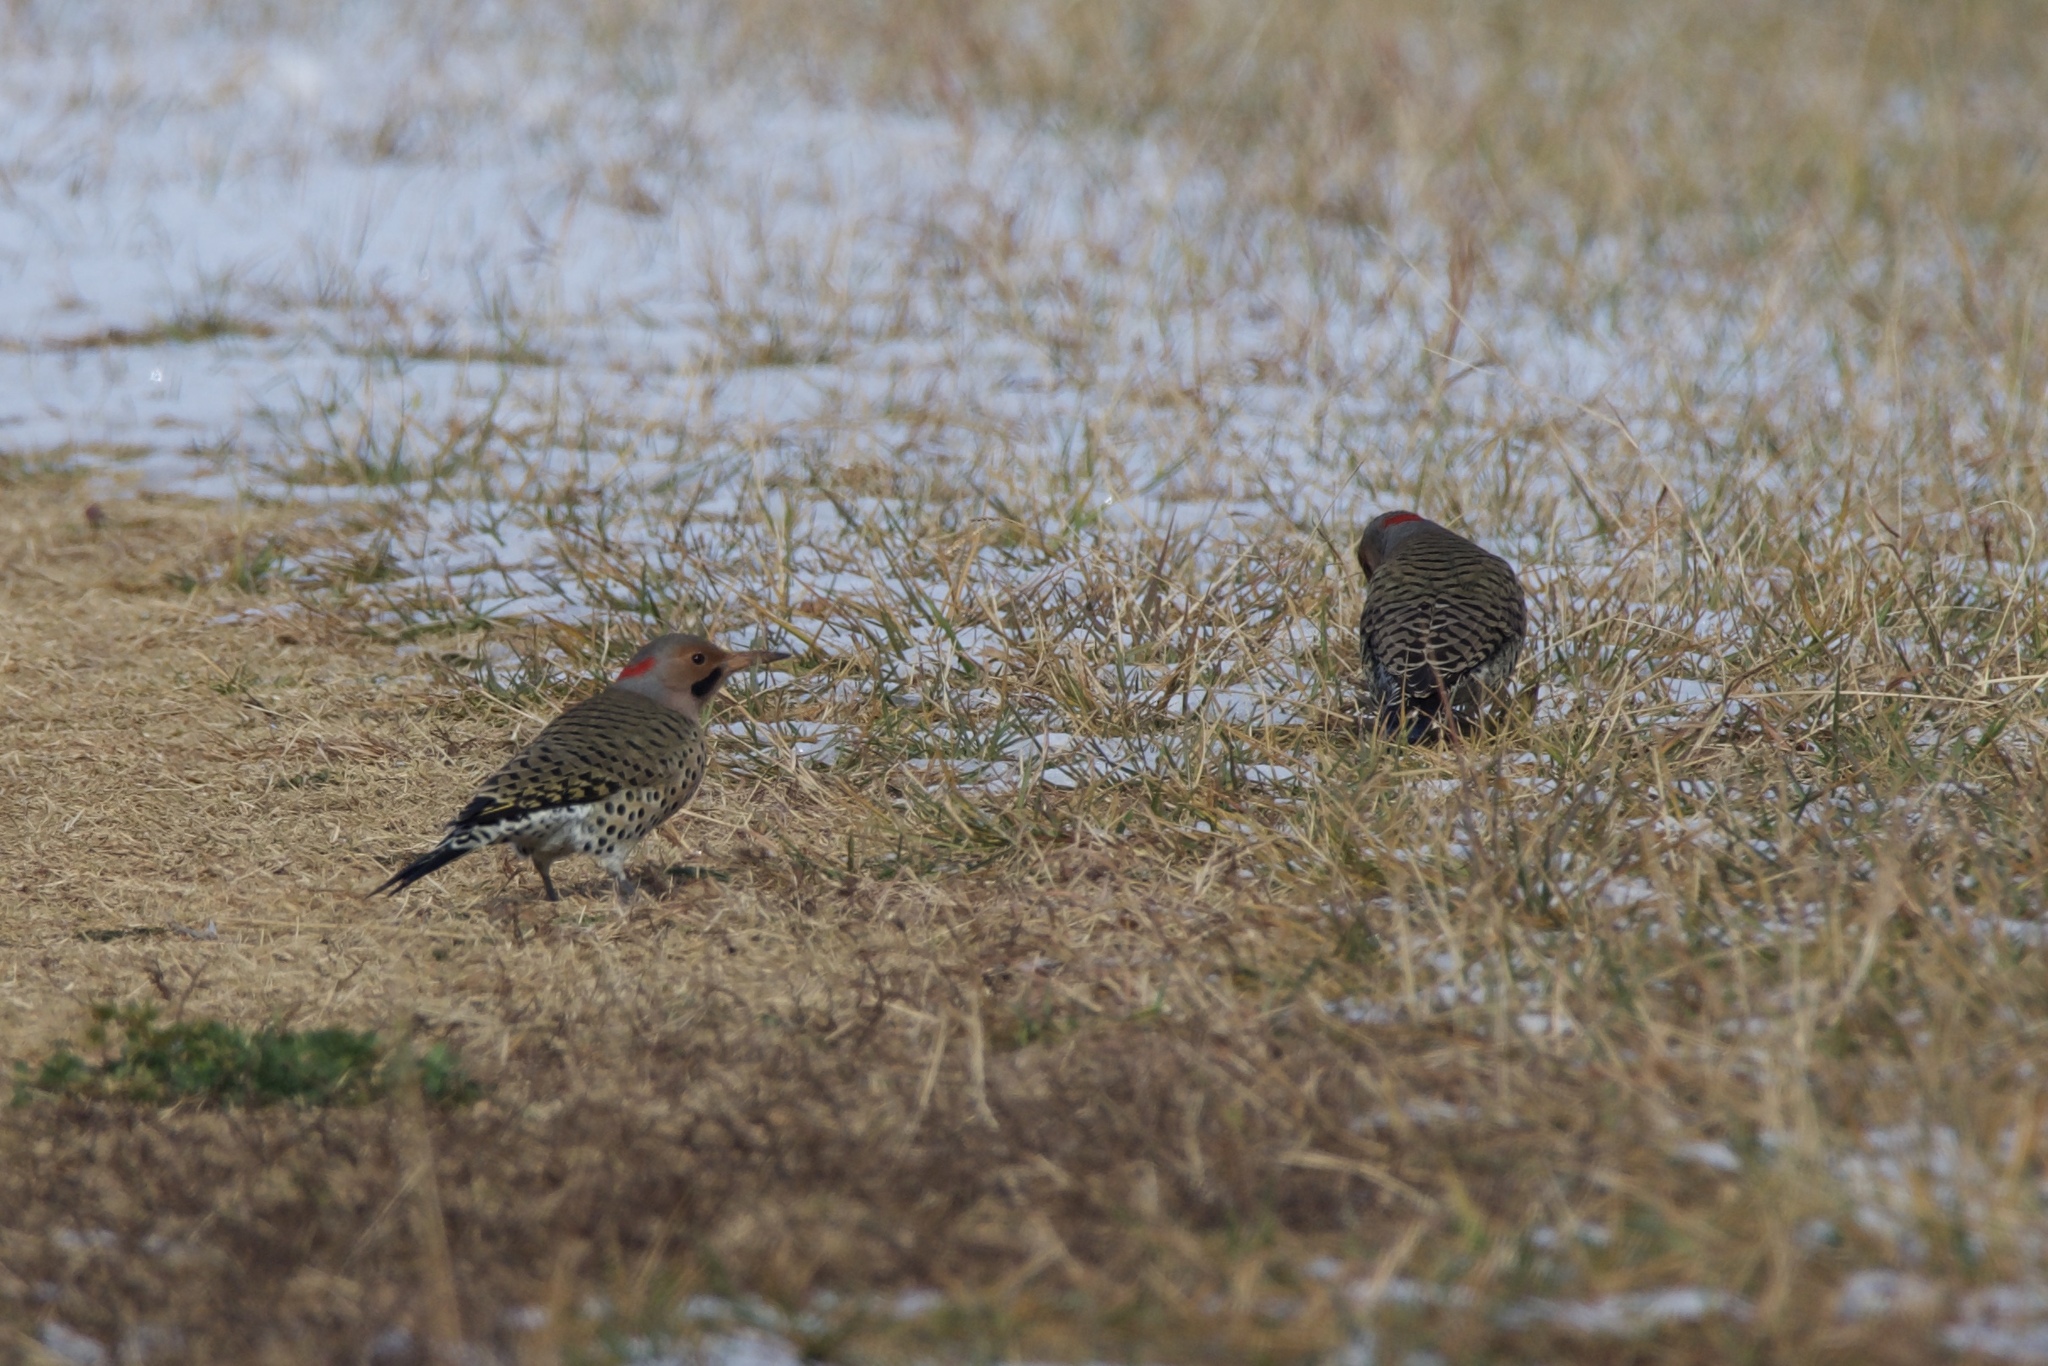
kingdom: Animalia
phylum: Chordata
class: Aves
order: Piciformes
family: Picidae
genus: Colaptes
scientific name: Colaptes auratus
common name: Northern flicker
